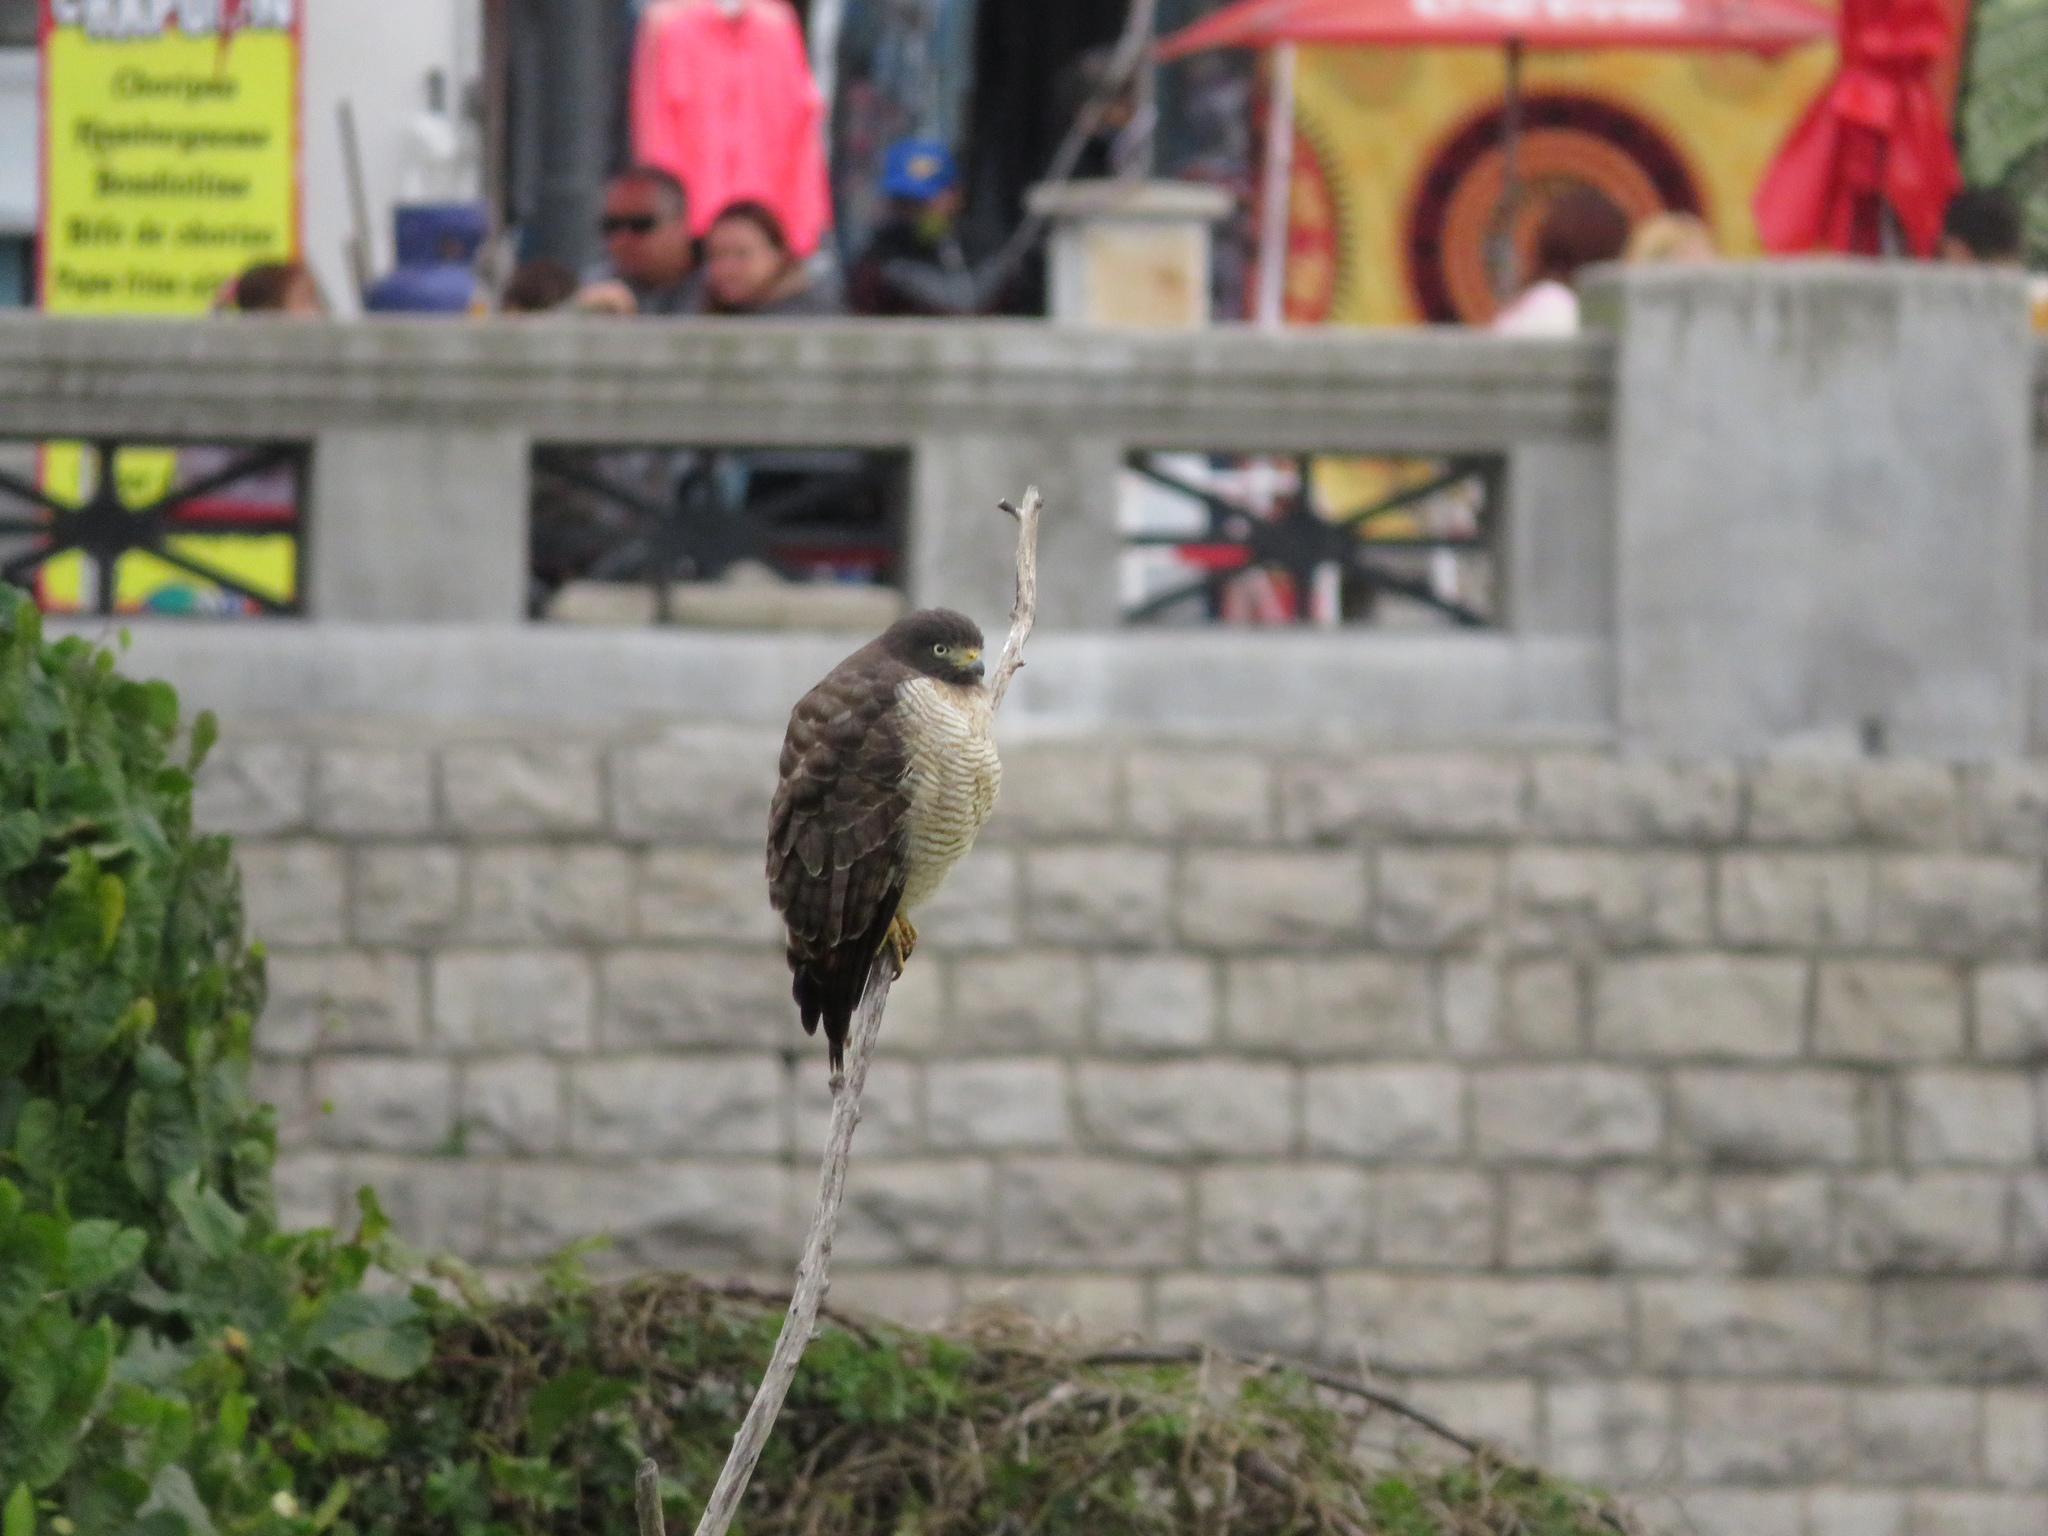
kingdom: Animalia
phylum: Chordata
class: Aves
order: Accipitriformes
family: Accipitridae
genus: Rupornis
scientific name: Rupornis magnirostris
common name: Roadside hawk
